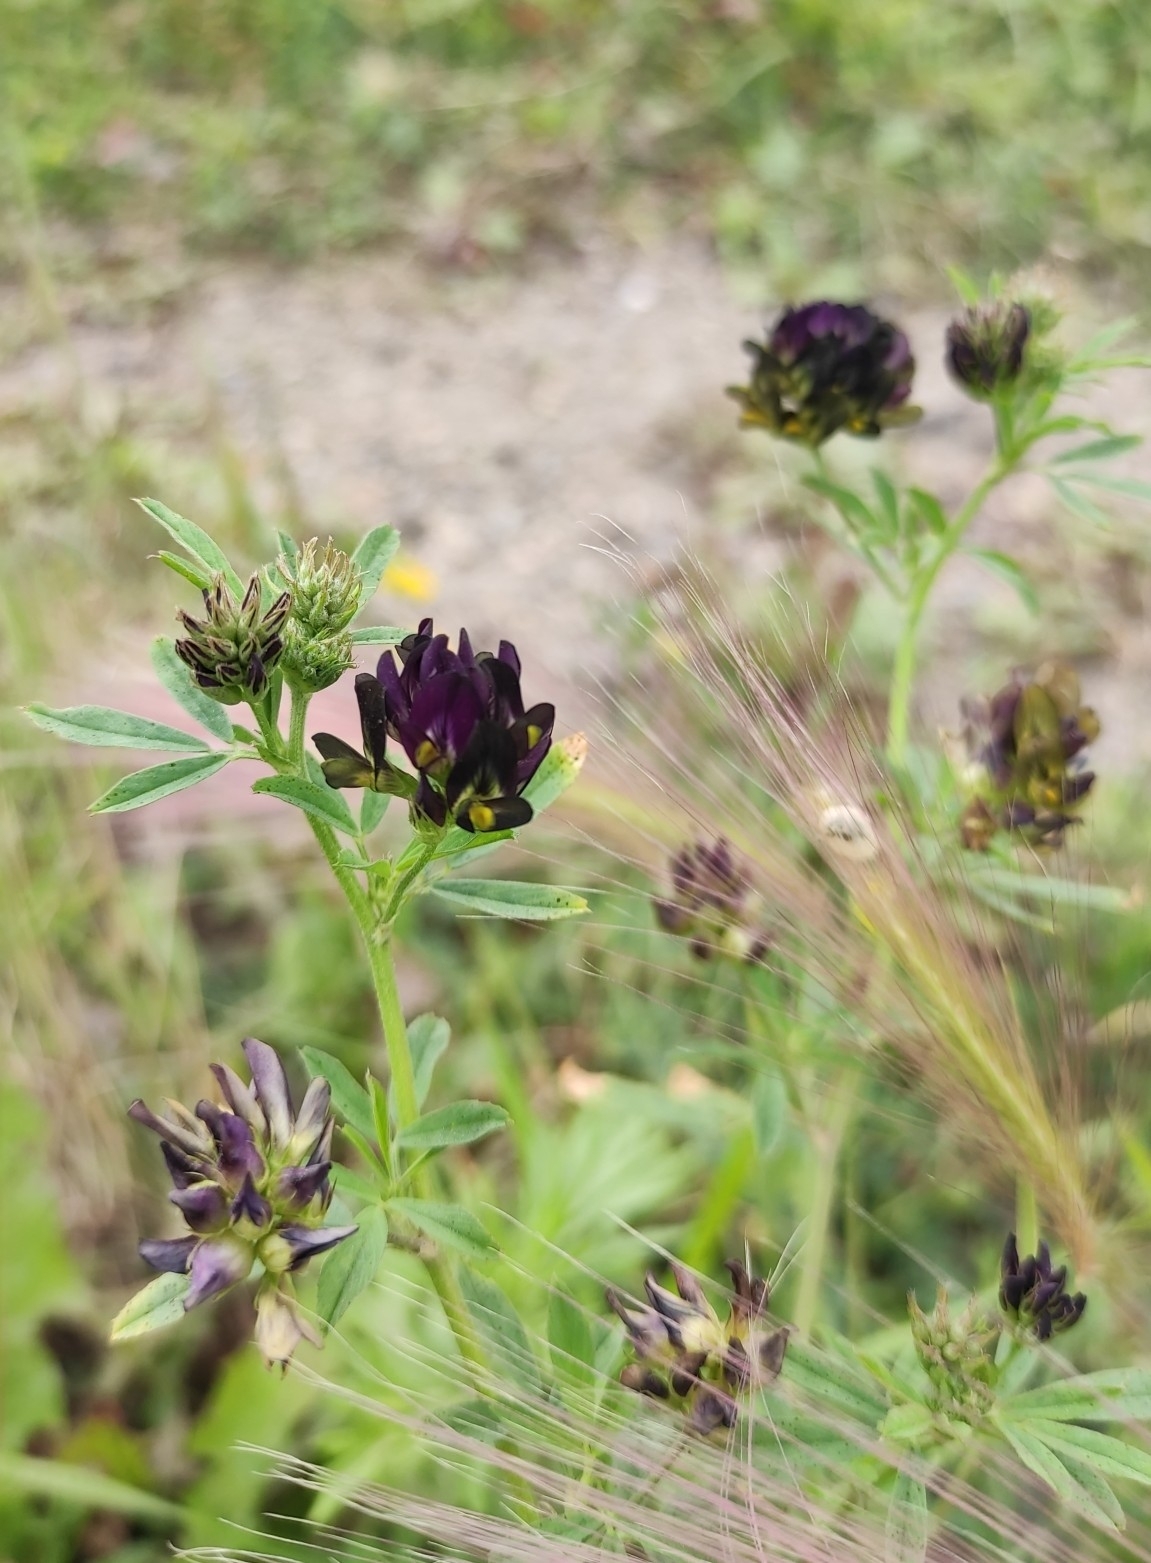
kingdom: Plantae
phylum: Tracheophyta
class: Magnoliopsida
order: Fabales
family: Fabaceae
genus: Medicago
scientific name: Medicago varia
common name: Sand lucerne
